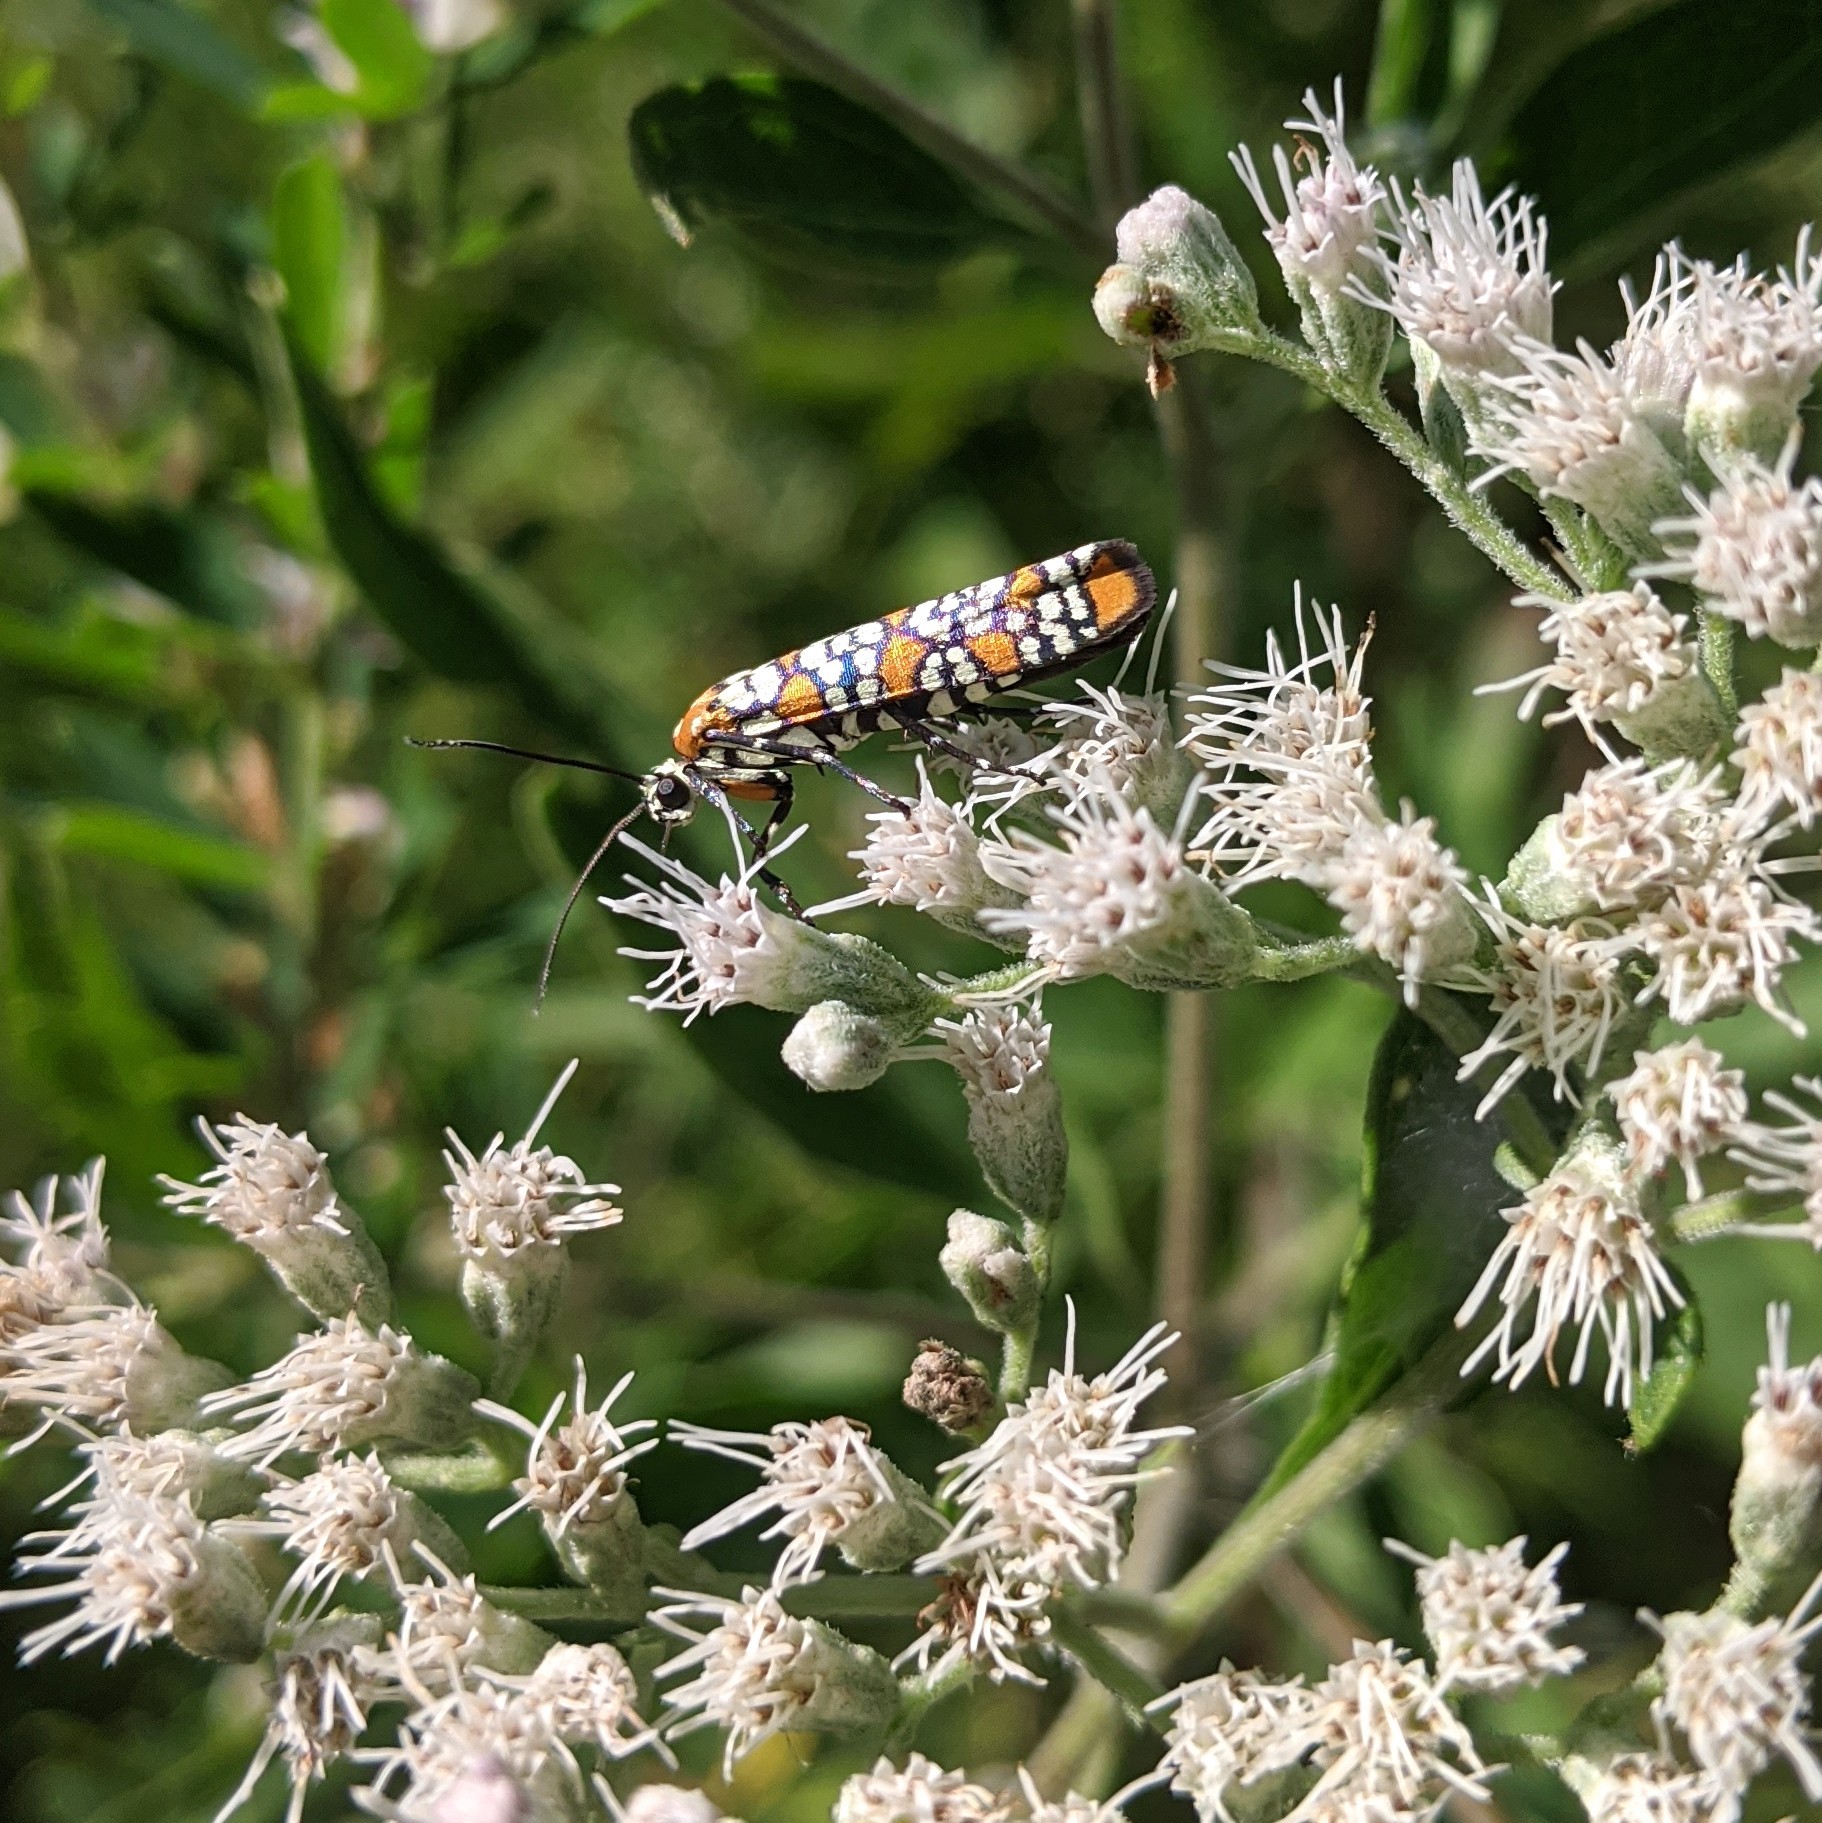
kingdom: Animalia
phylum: Arthropoda
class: Insecta
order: Lepidoptera
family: Attevidae
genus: Atteva
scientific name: Atteva punctella
